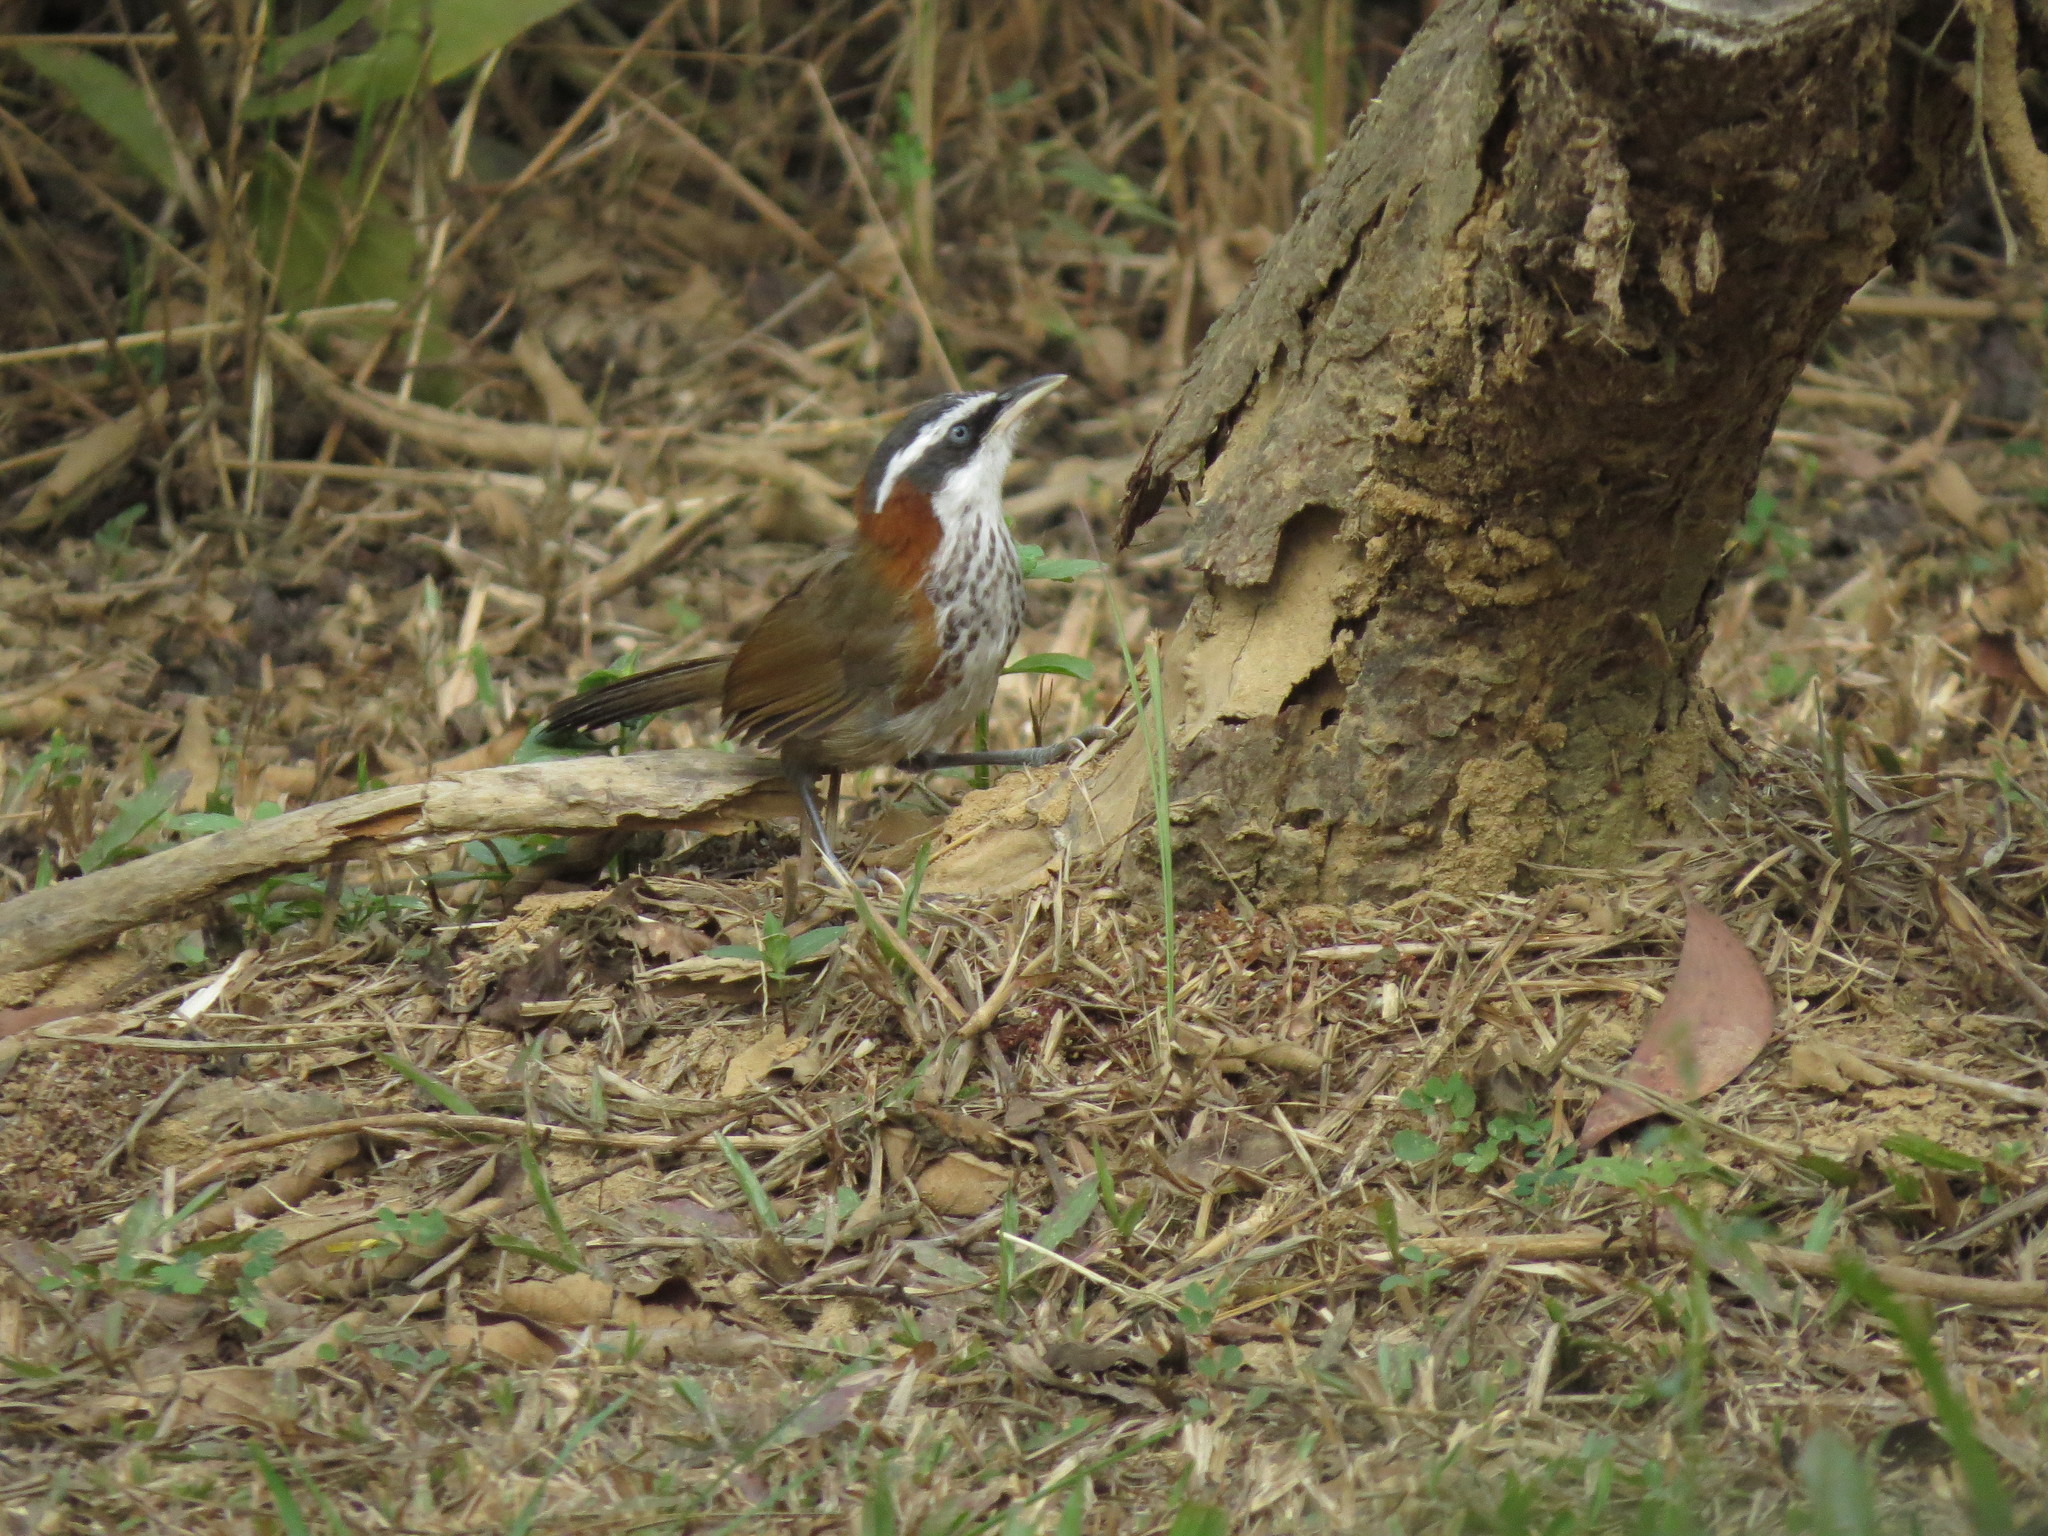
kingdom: Animalia
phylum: Chordata
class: Aves
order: Passeriformes
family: Timaliidae
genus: Pomatorhinus
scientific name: Pomatorhinus musicus
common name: Taiwan scimitar-babbler
